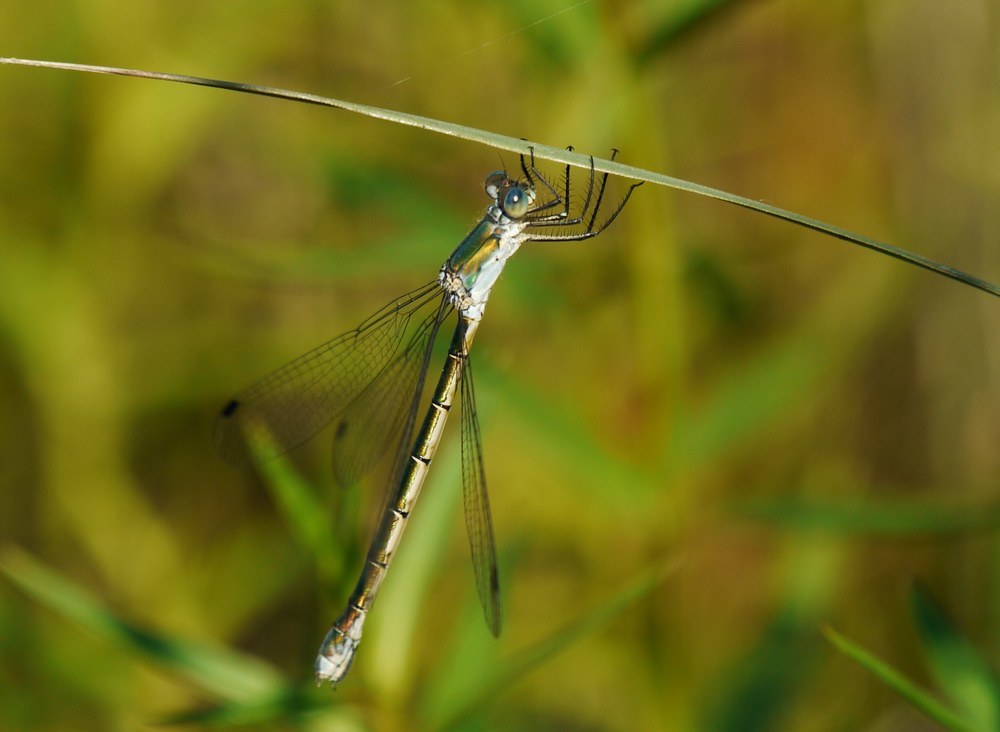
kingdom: Animalia
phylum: Arthropoda
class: Insecta
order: Odonata
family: Lestidae
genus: Lestes
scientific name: Lestes dryas
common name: Scarce emerald damselfly
